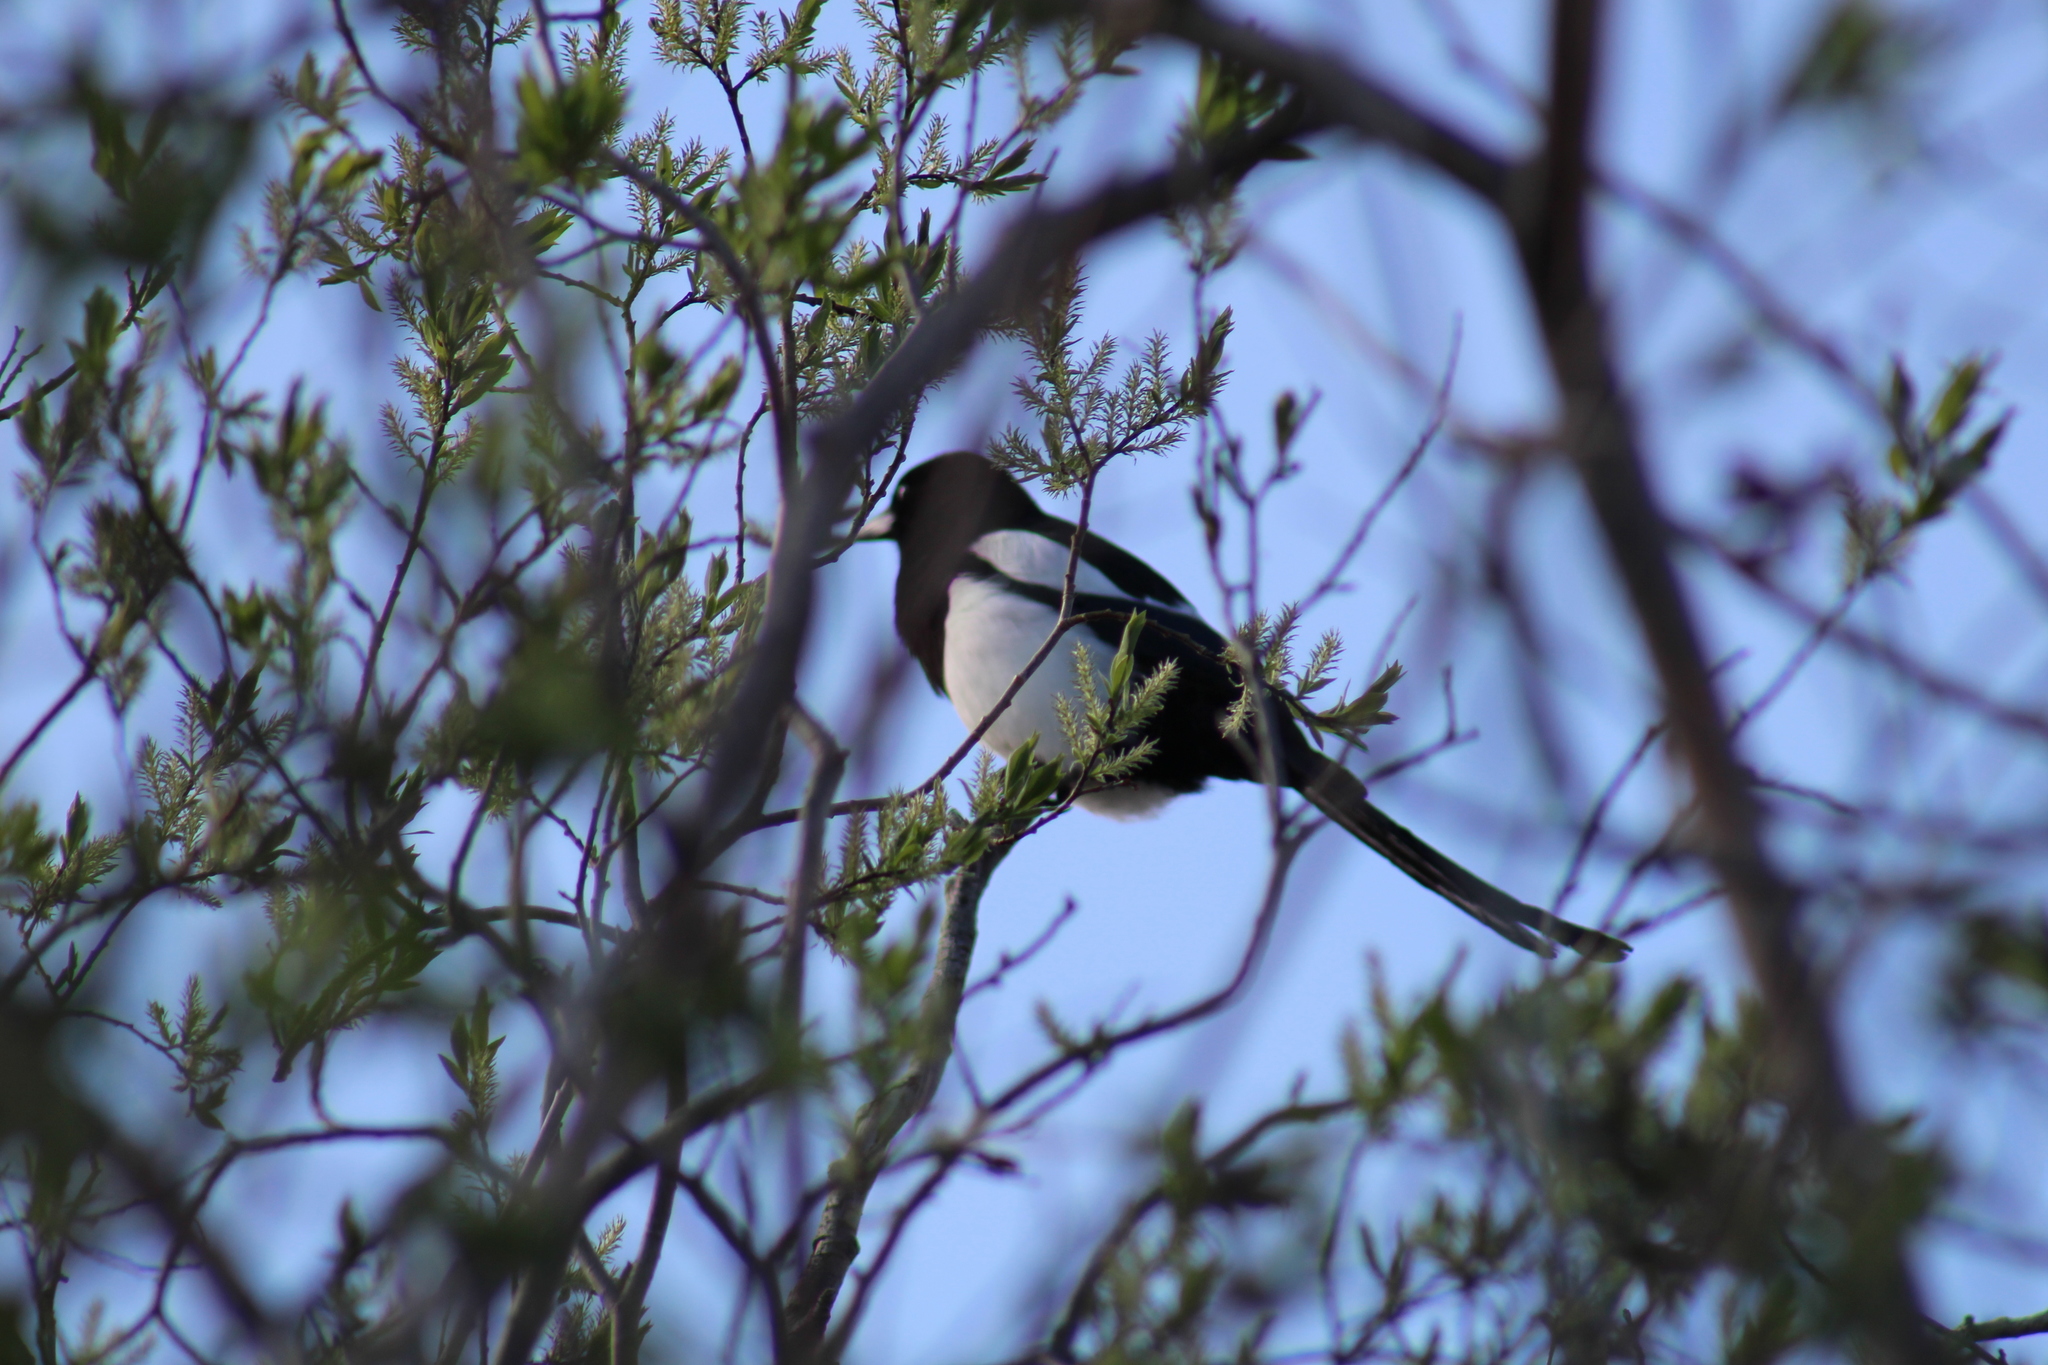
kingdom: Animalia
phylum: Chordata
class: Aves
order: Passeriformes
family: Corvidae
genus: Pica
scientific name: Pica hudsonia
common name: Black-billed magpie
